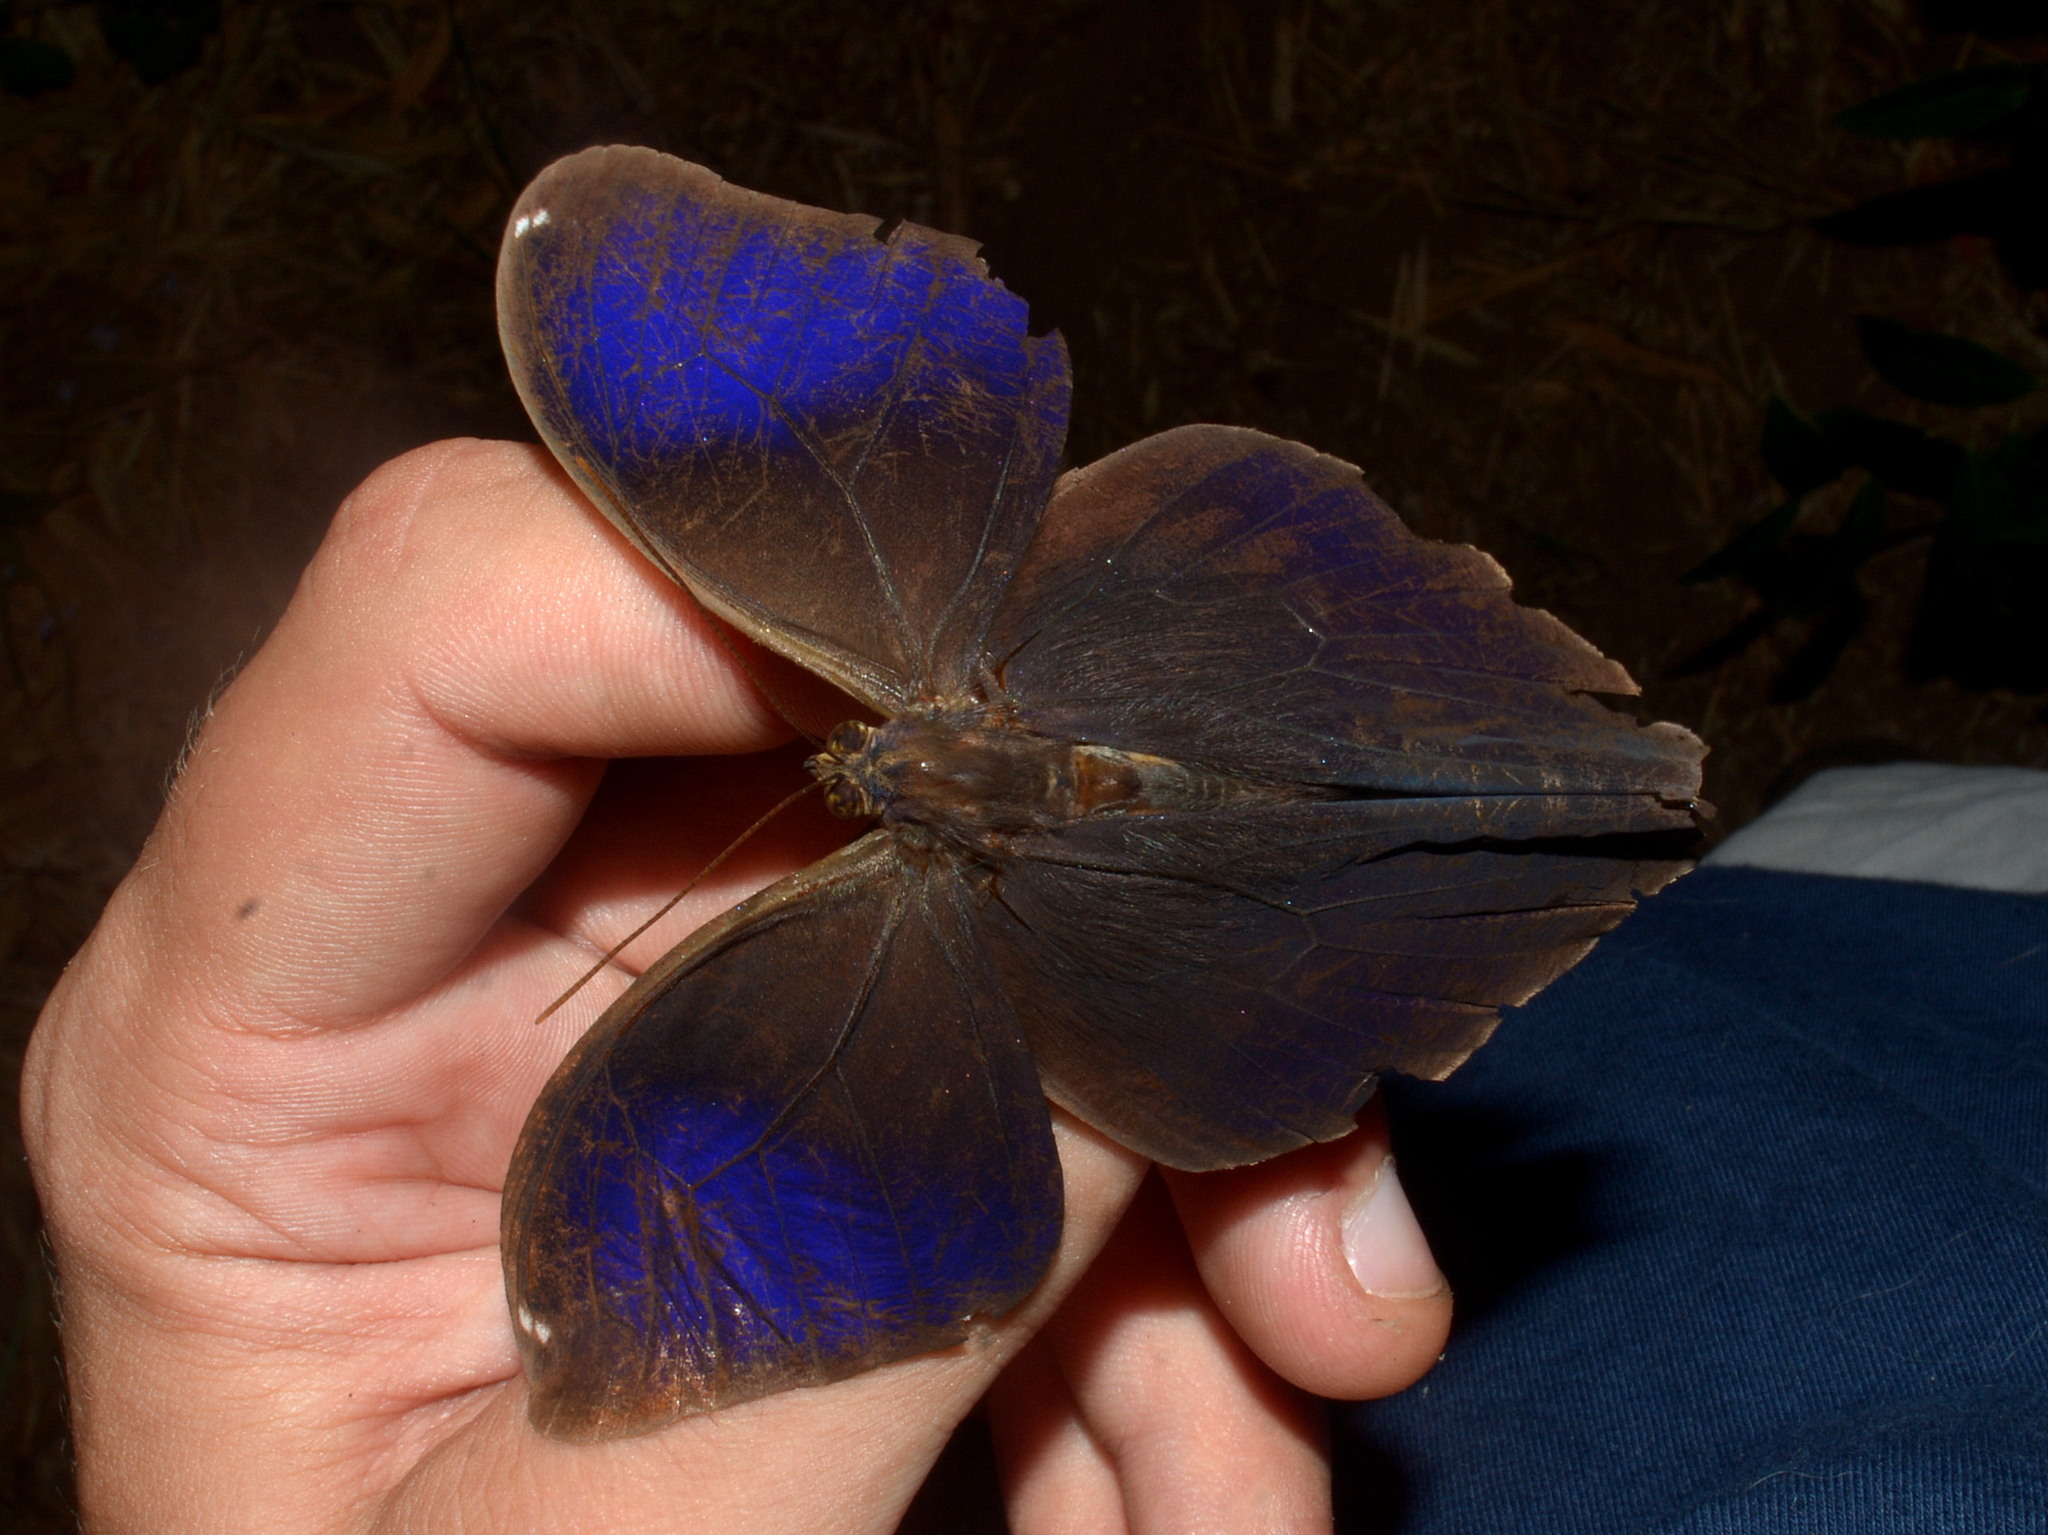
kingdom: Animalia
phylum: Arthropoda
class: Insecta
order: Lepidoptera
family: Nymphalidae
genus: Eryphanis
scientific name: Eryphanis reevesii
